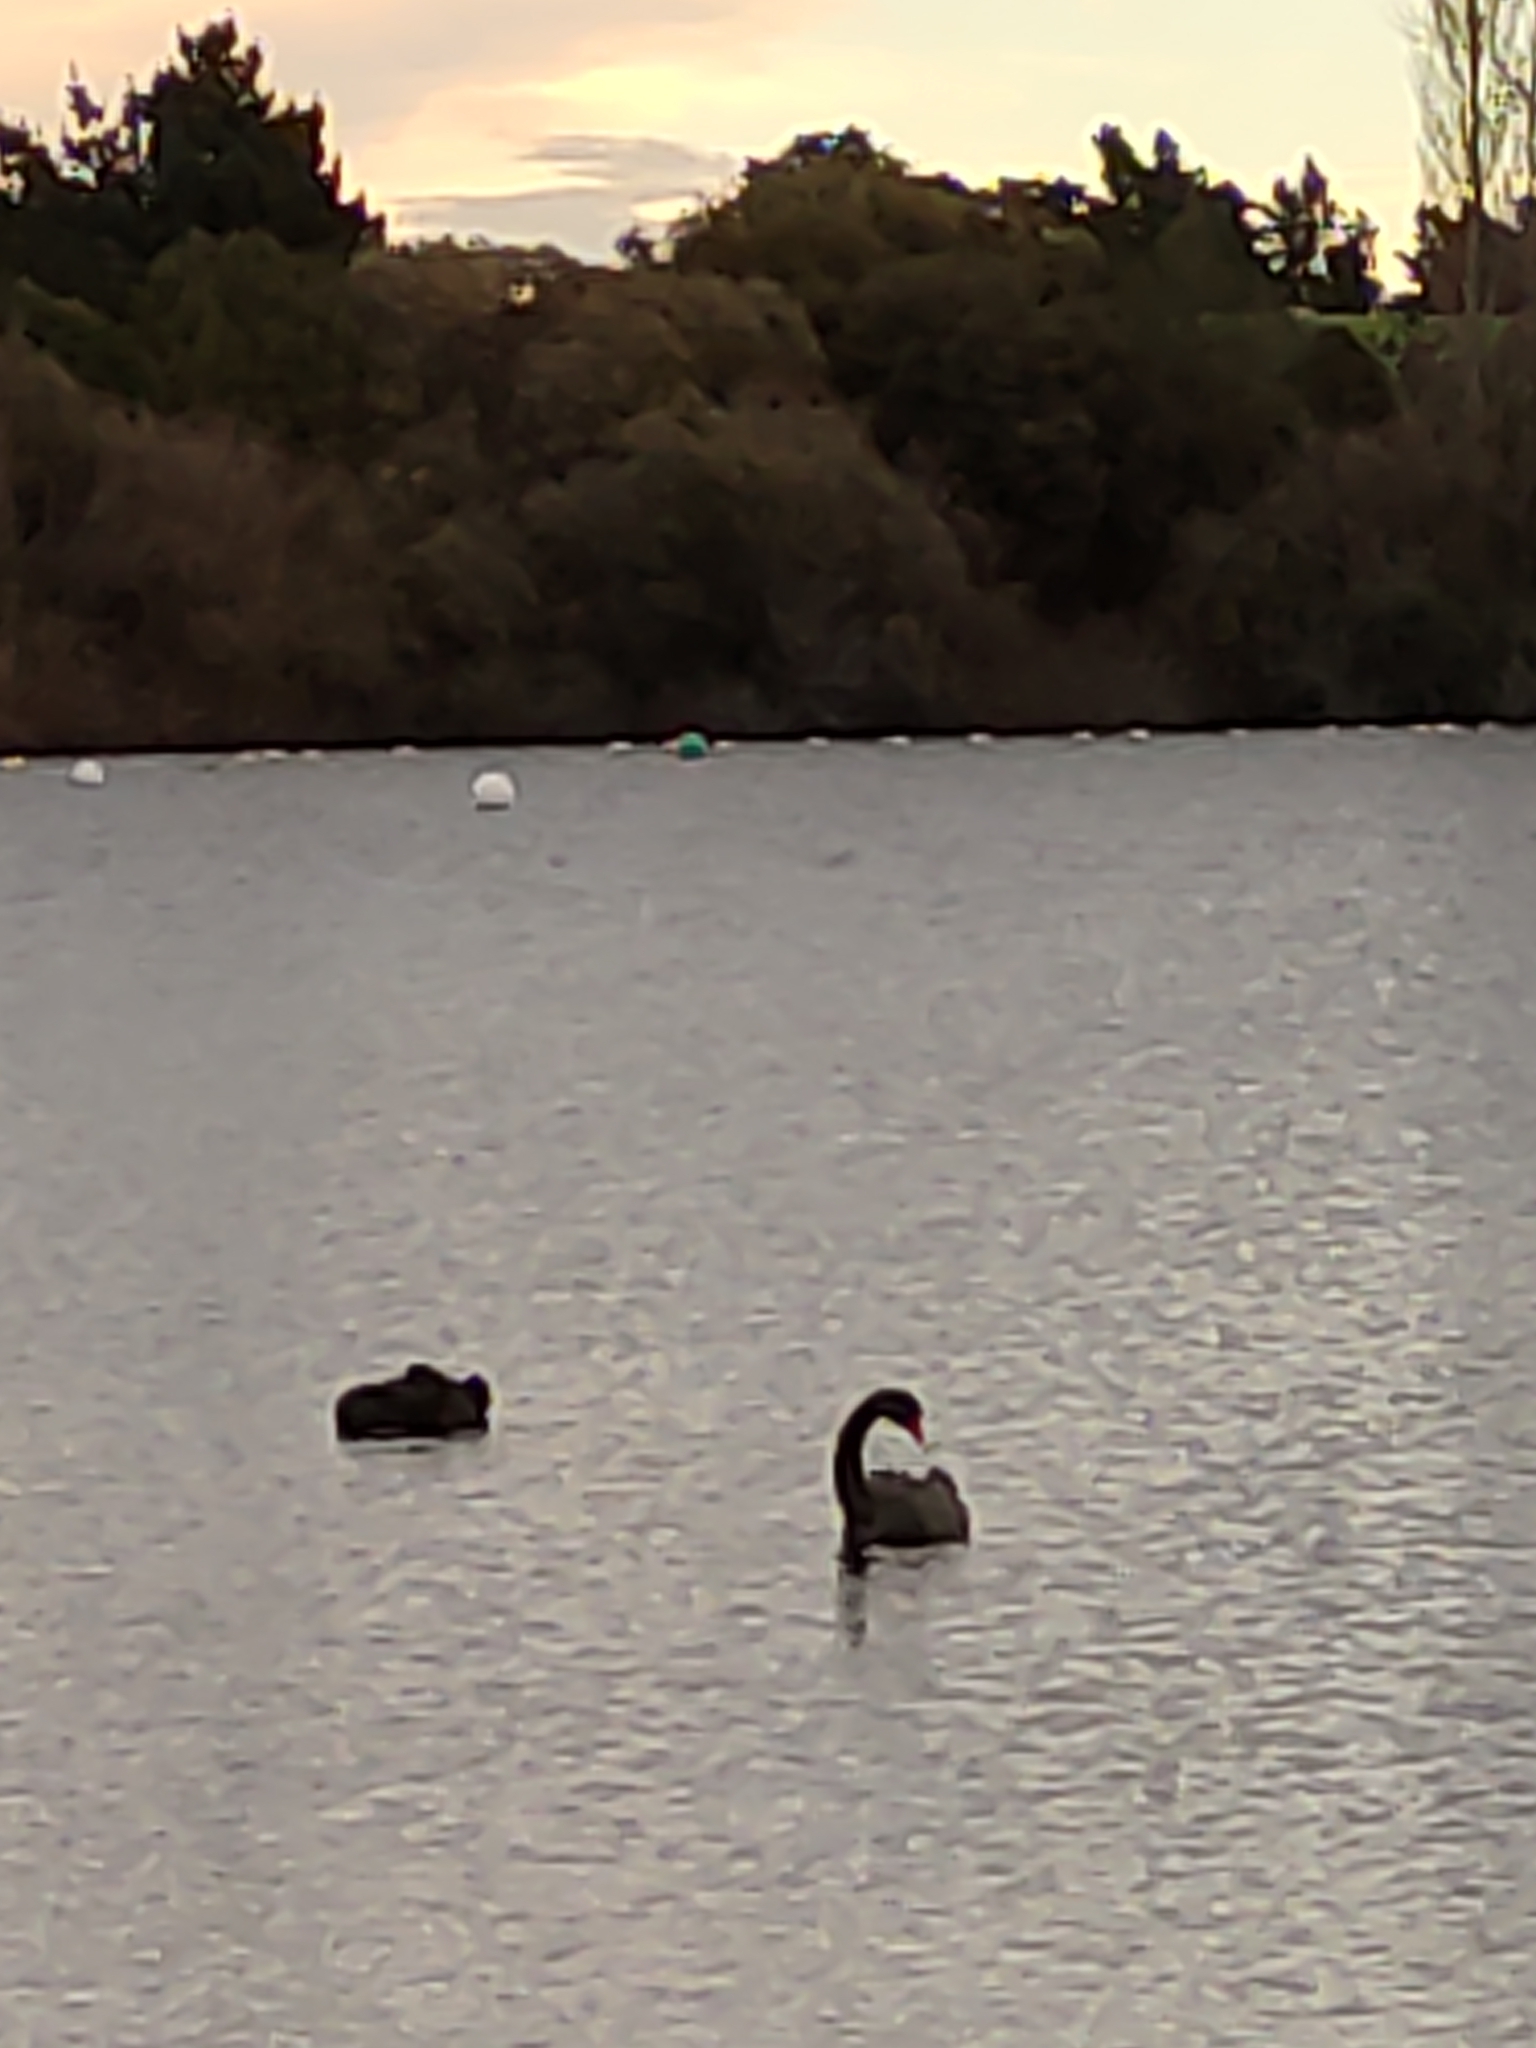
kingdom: Animalia
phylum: Chordata
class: Aves
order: Anseriformes
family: Anatidae
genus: Cygnus
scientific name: Cygnus atratus
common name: Black swan
